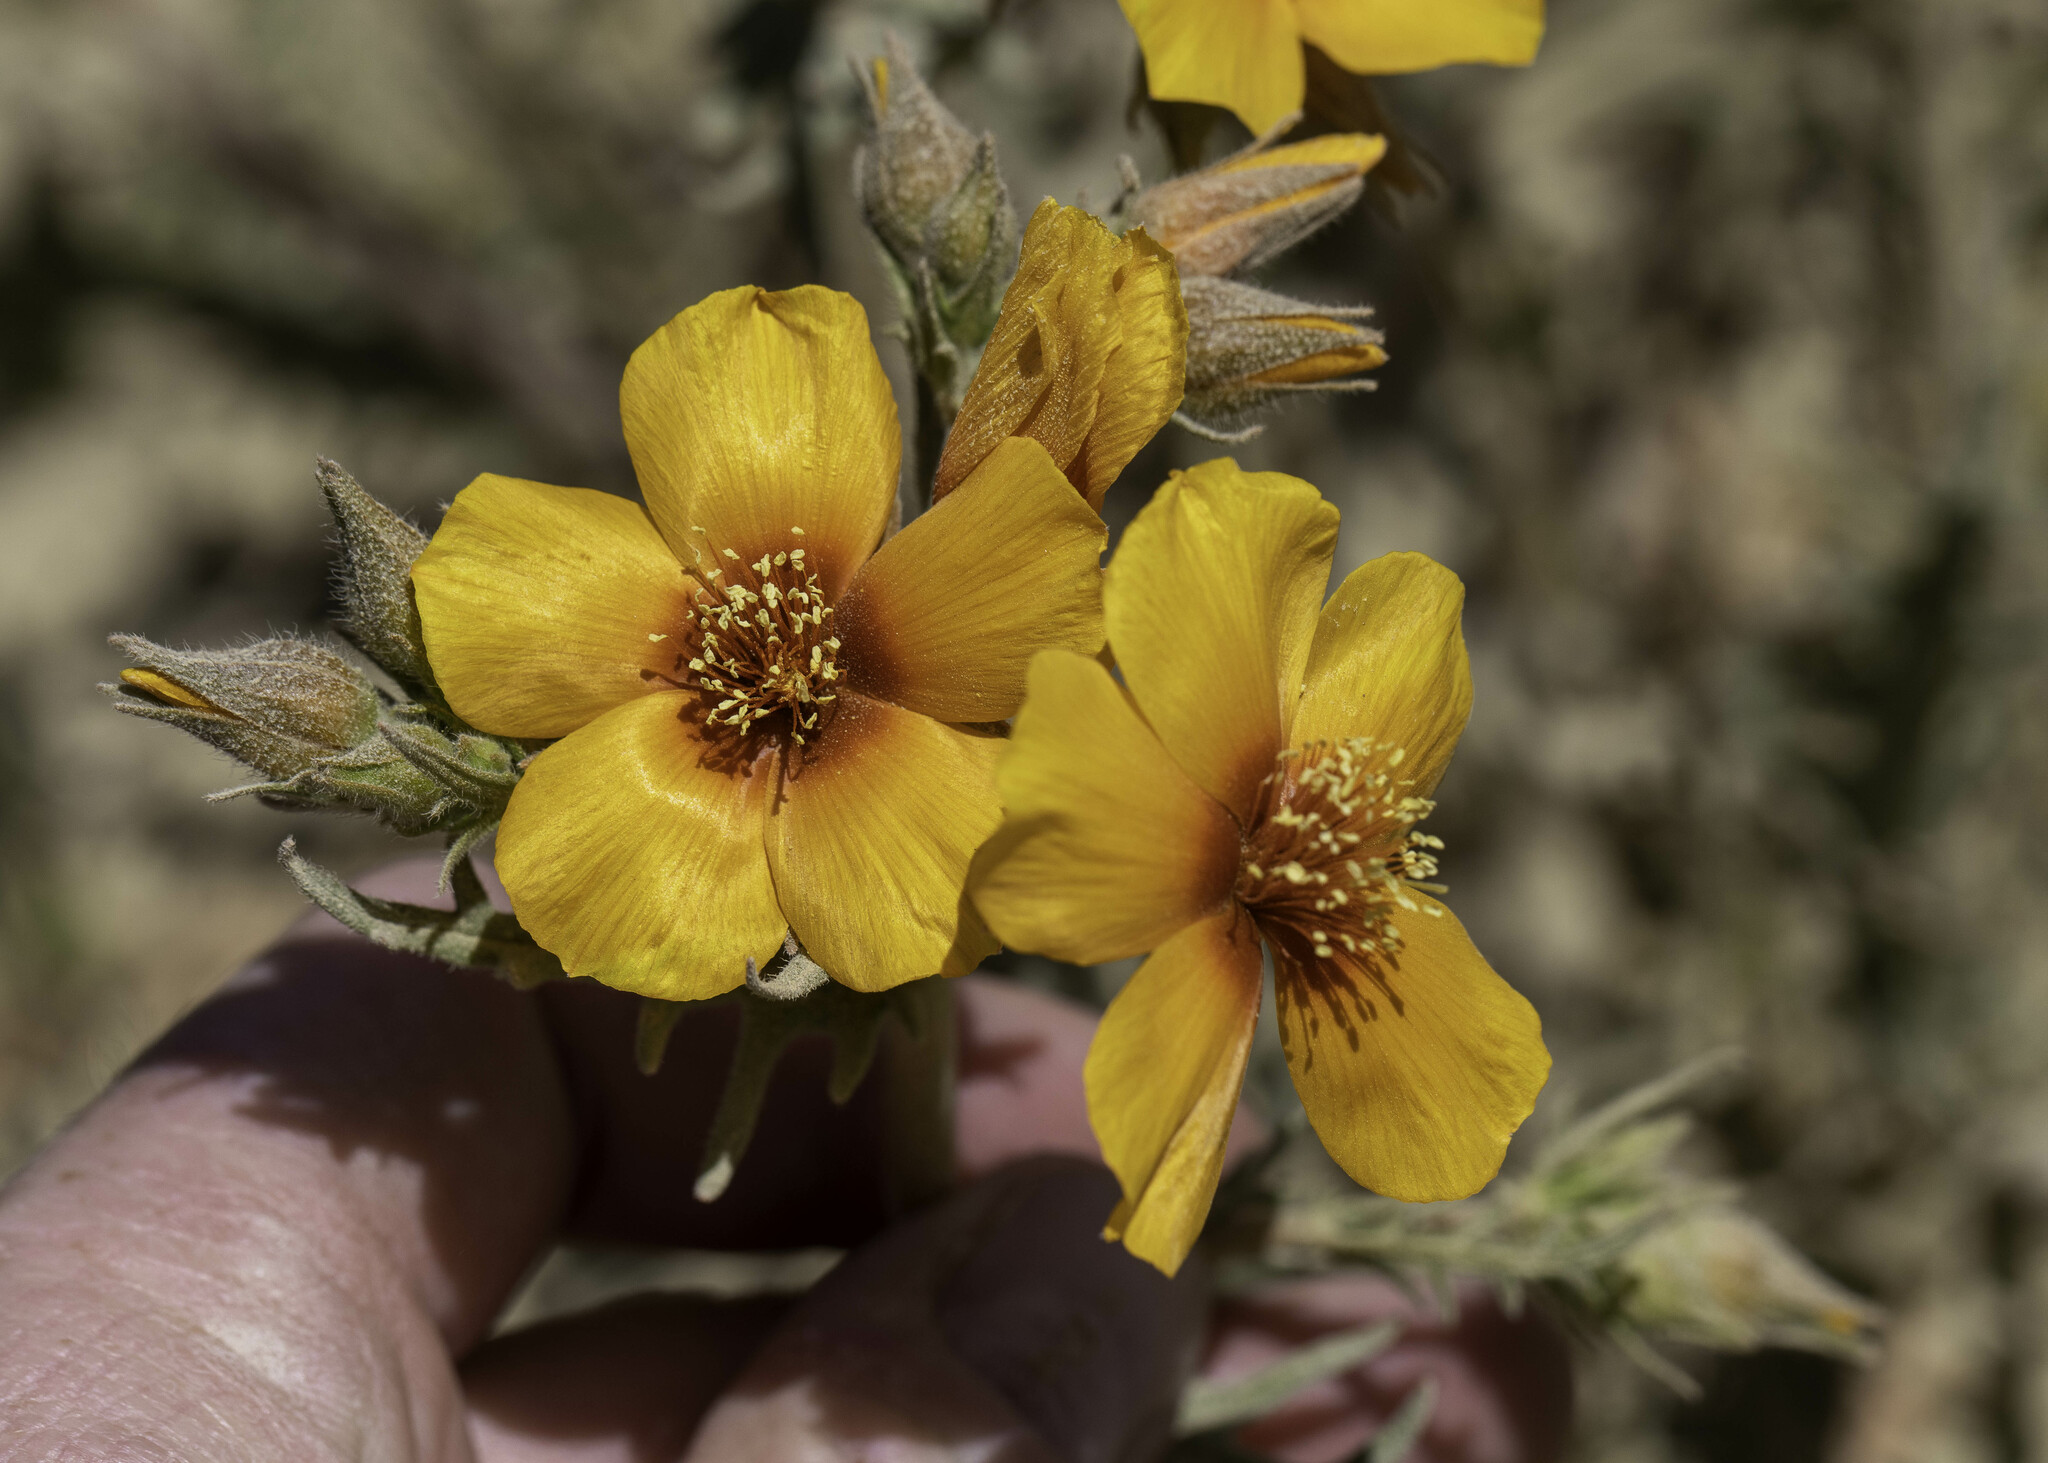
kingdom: Plantae
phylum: Tracheophyta
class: Magnoliopsida
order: Cornales
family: Loasaceae
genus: Mentzelia
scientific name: Mentzelia pectinata
